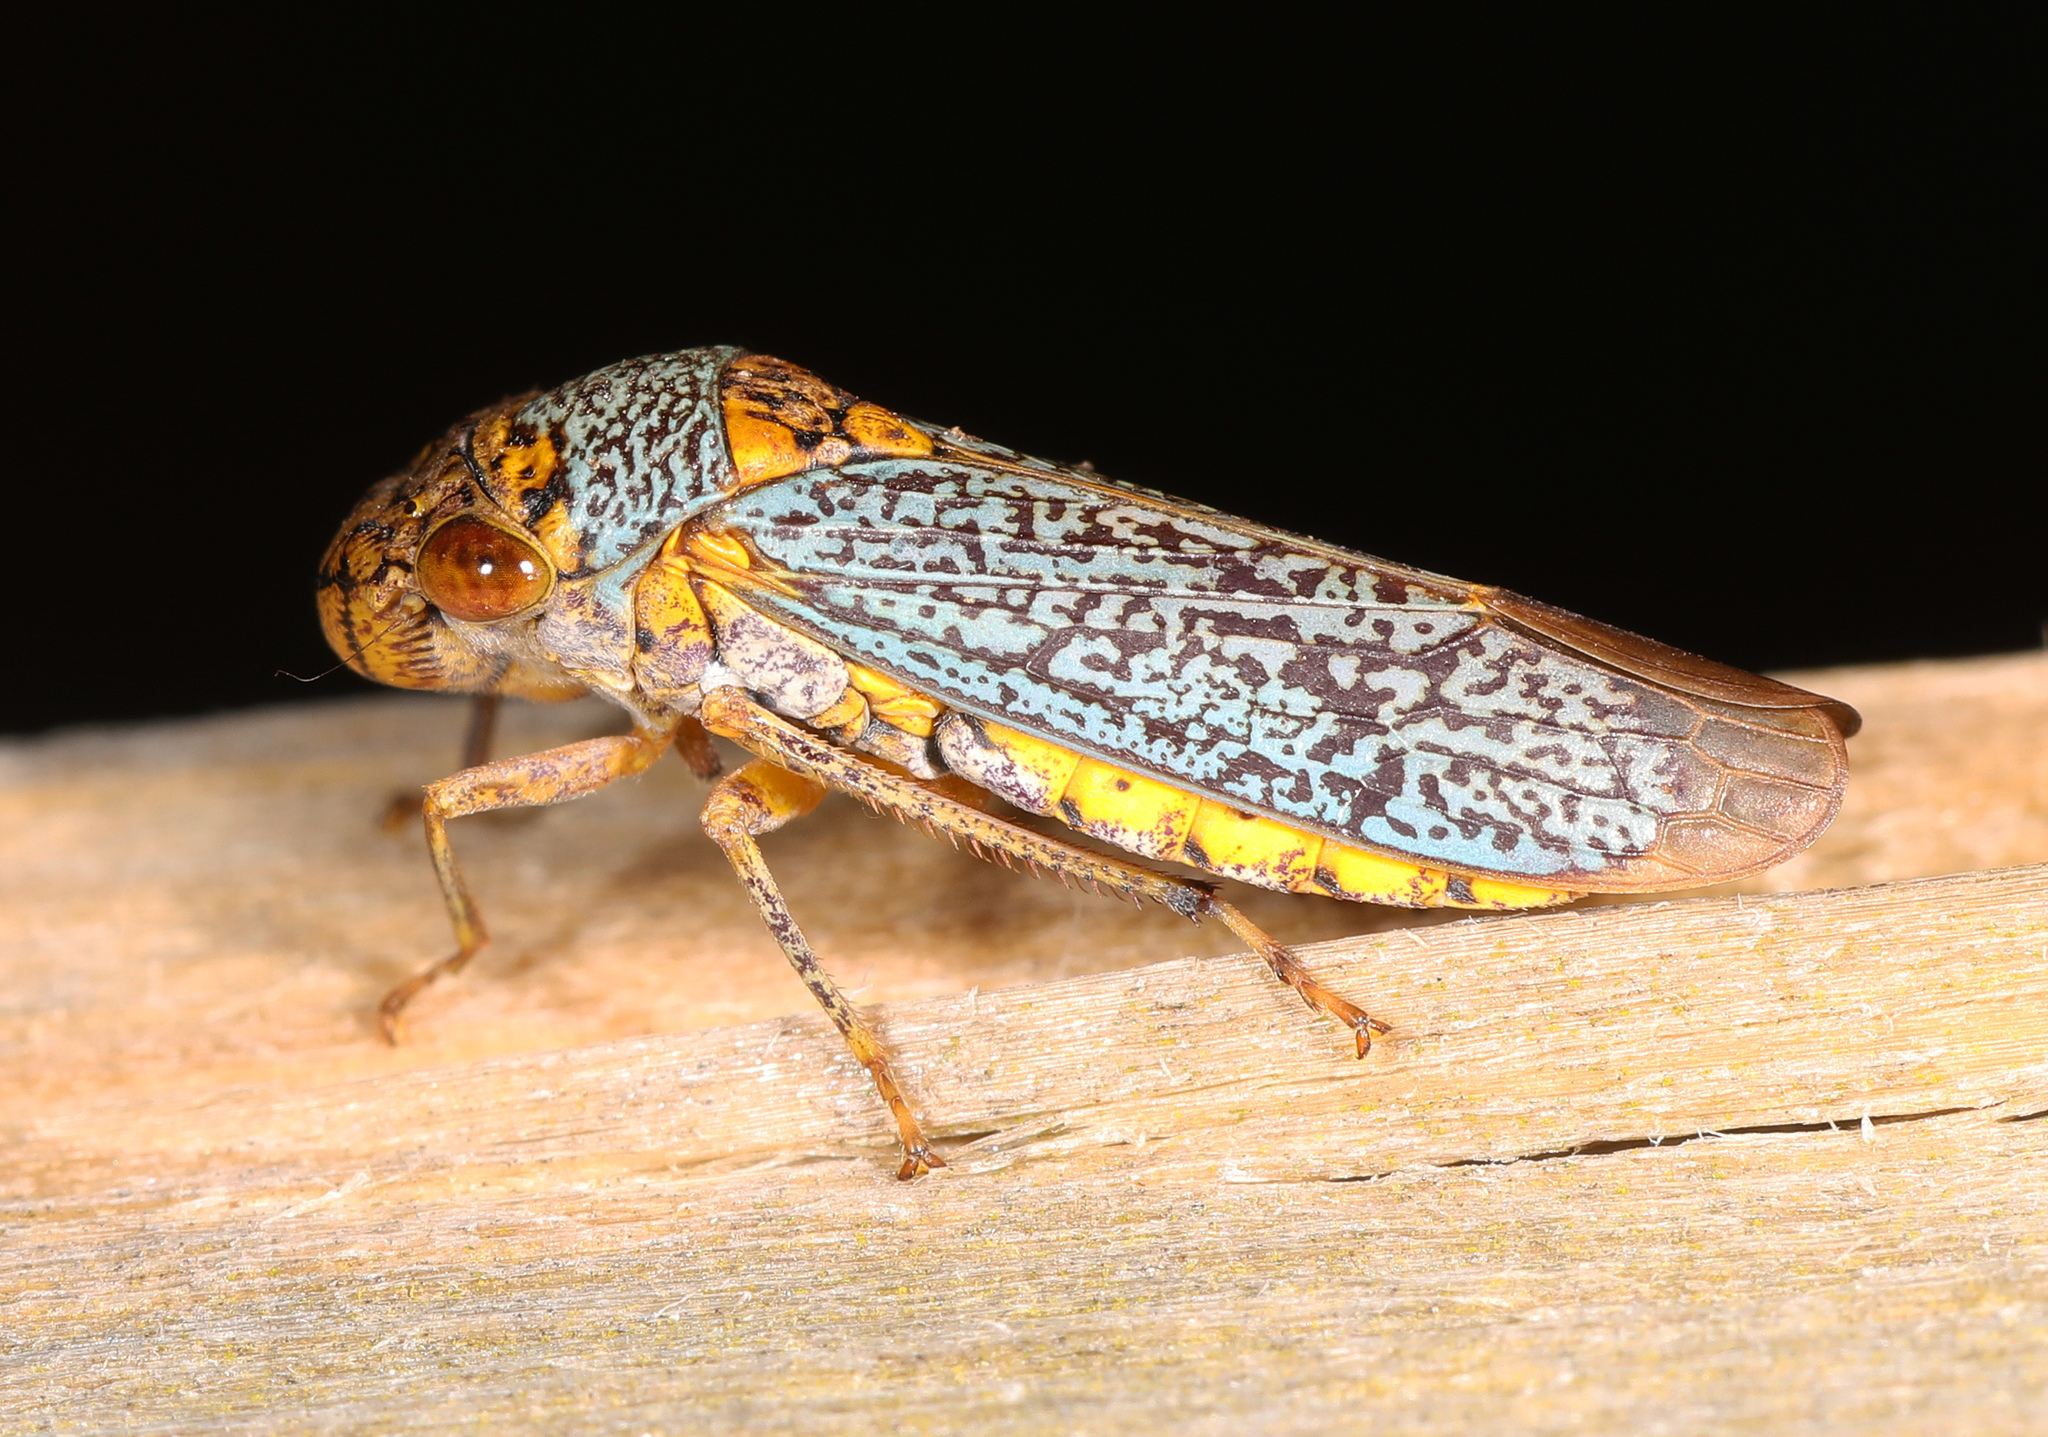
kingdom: Animalia
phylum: Arthropoda
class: Insecta
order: Hemiptera
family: Cicadellidae
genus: Oncometopia
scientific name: Oncometopia orbona
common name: Broad-headed sharpshooter
